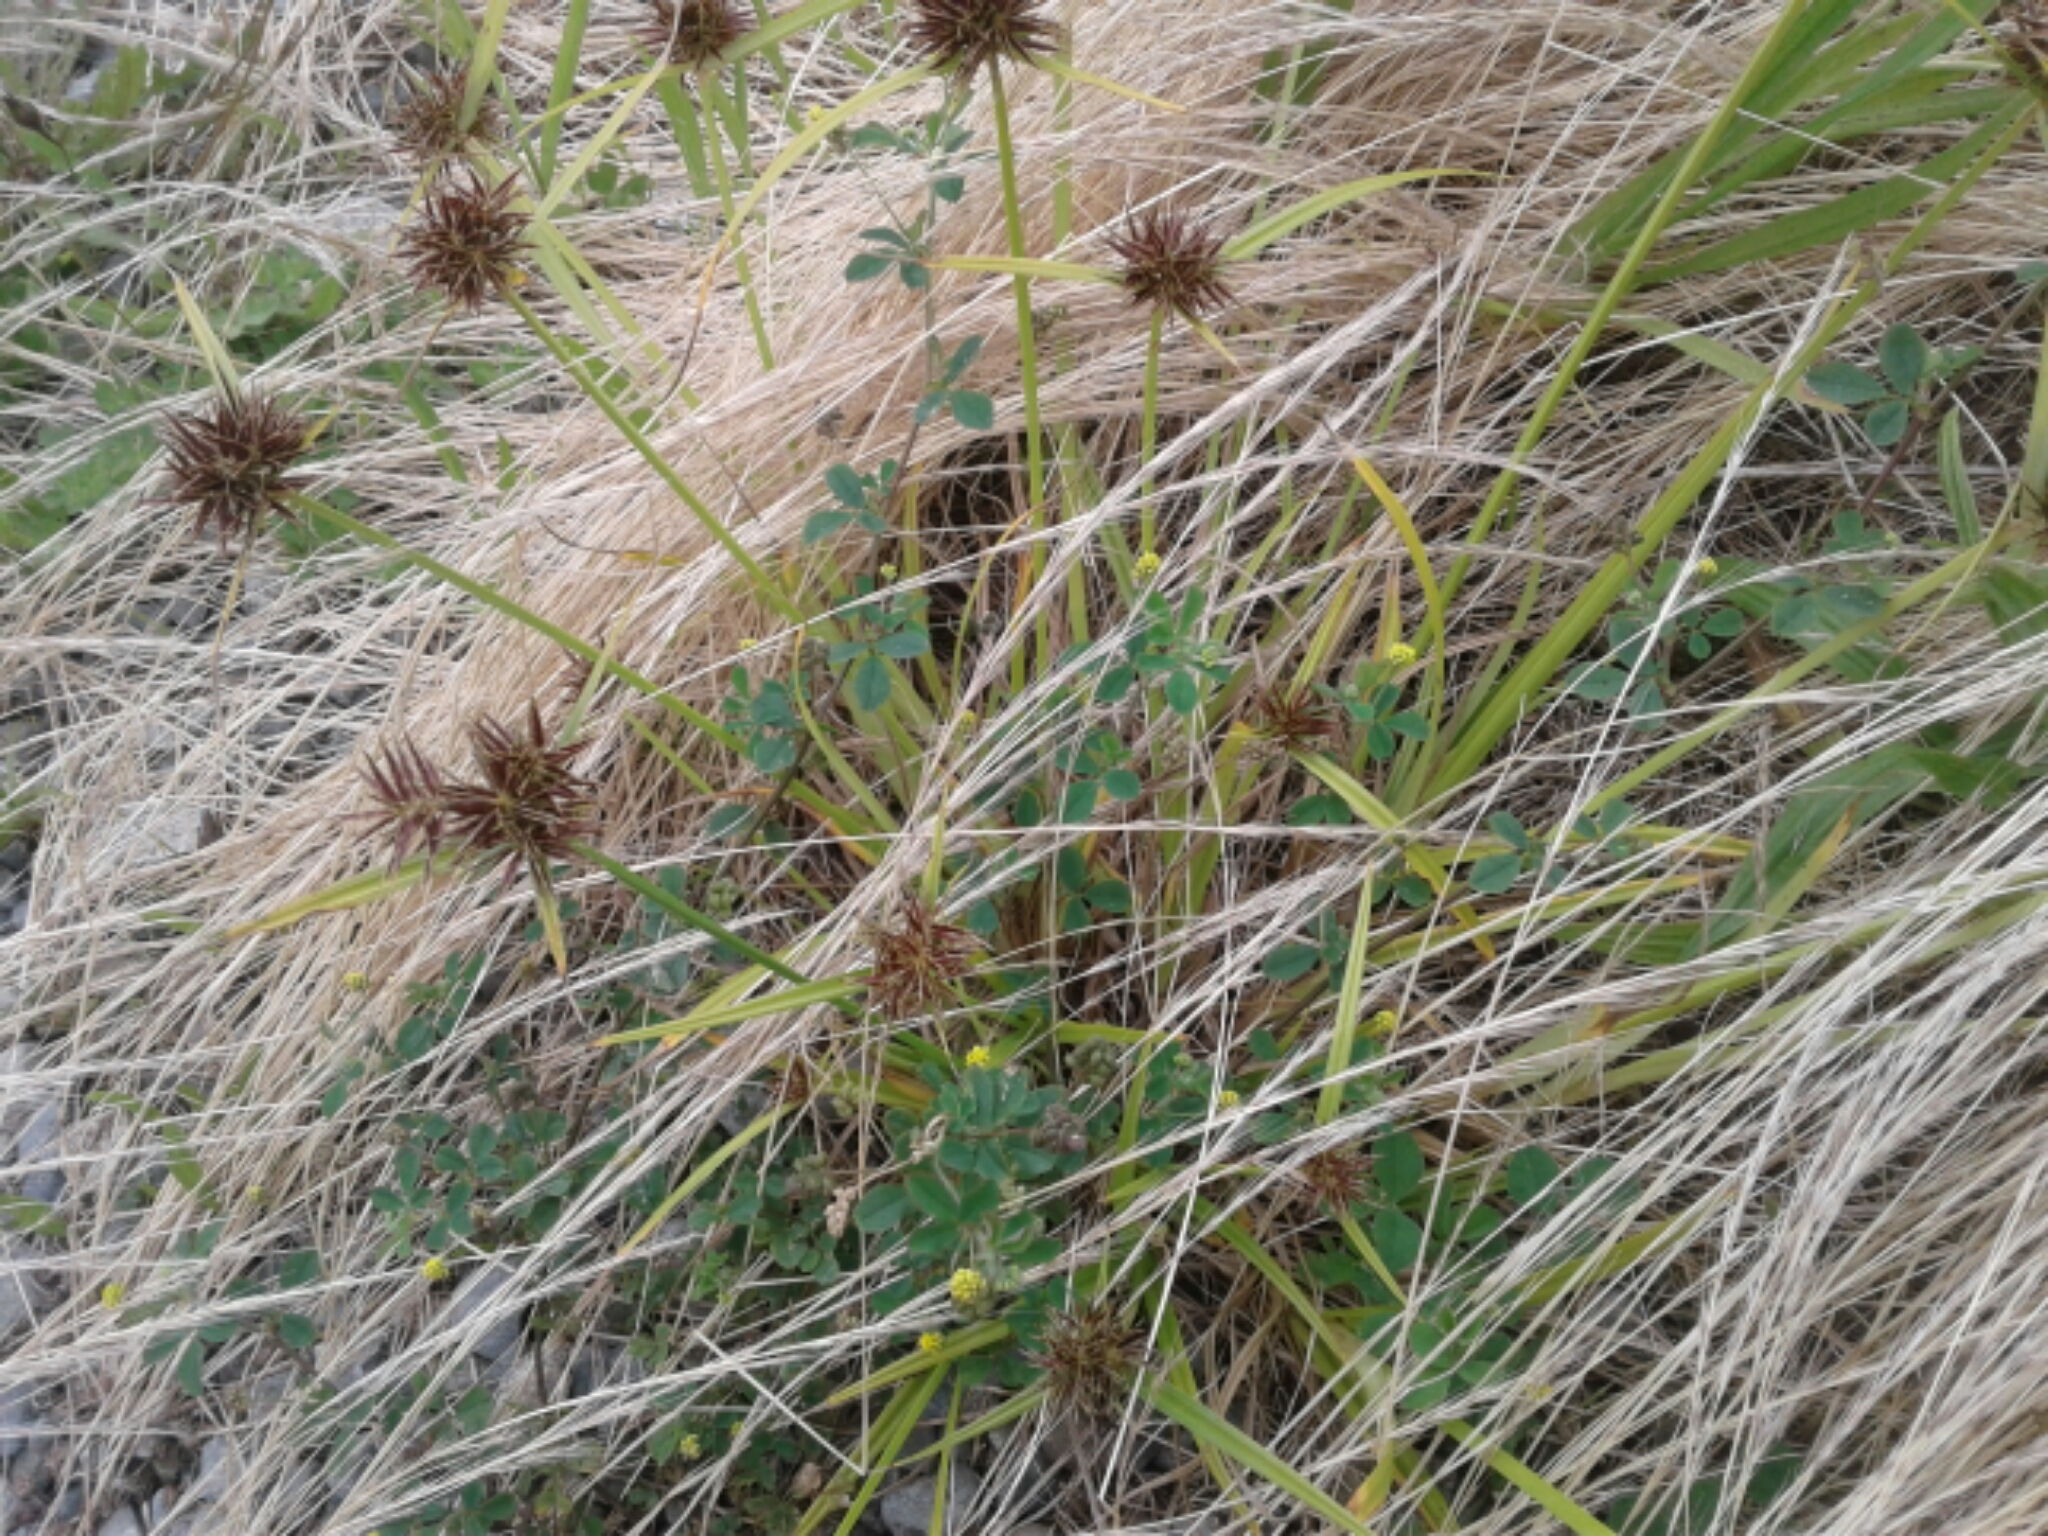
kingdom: Plantae
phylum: Tracheophyta
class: Liliopsida
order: Poales
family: Cyperaceae
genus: Cyperus
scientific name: Cyperus
